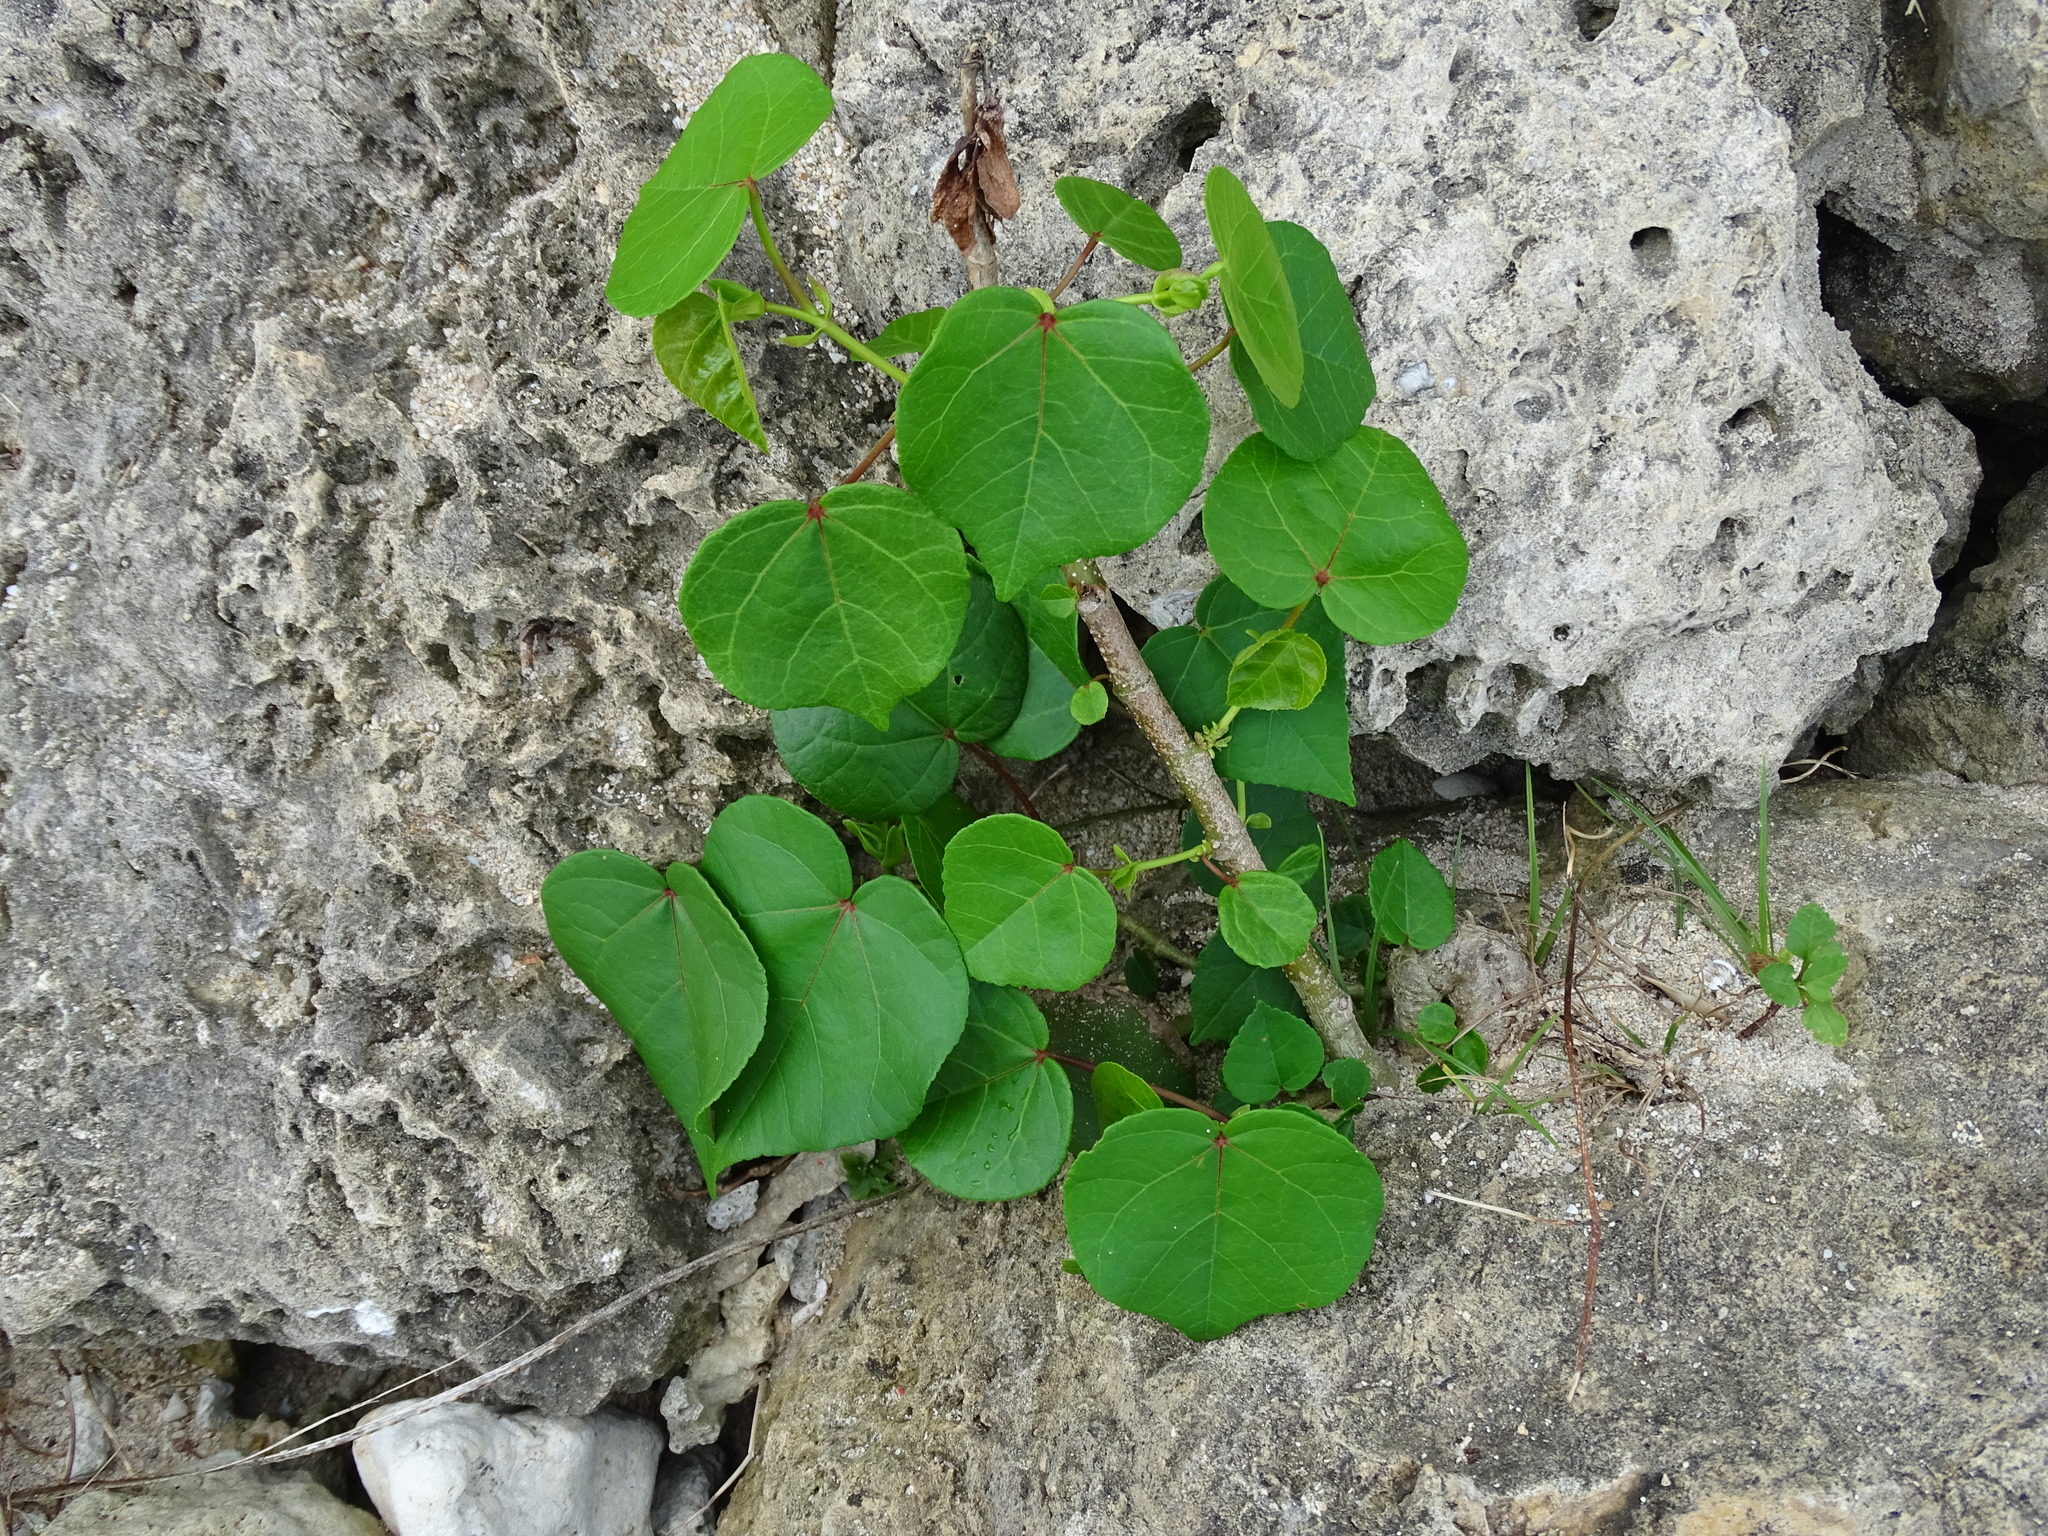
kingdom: Plantae
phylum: Tracheophyta
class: Magnoliopsida
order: Malvales
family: Malvaceae
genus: Talipariti
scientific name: Talipariti tiliaceum
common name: Sea hibiscus
